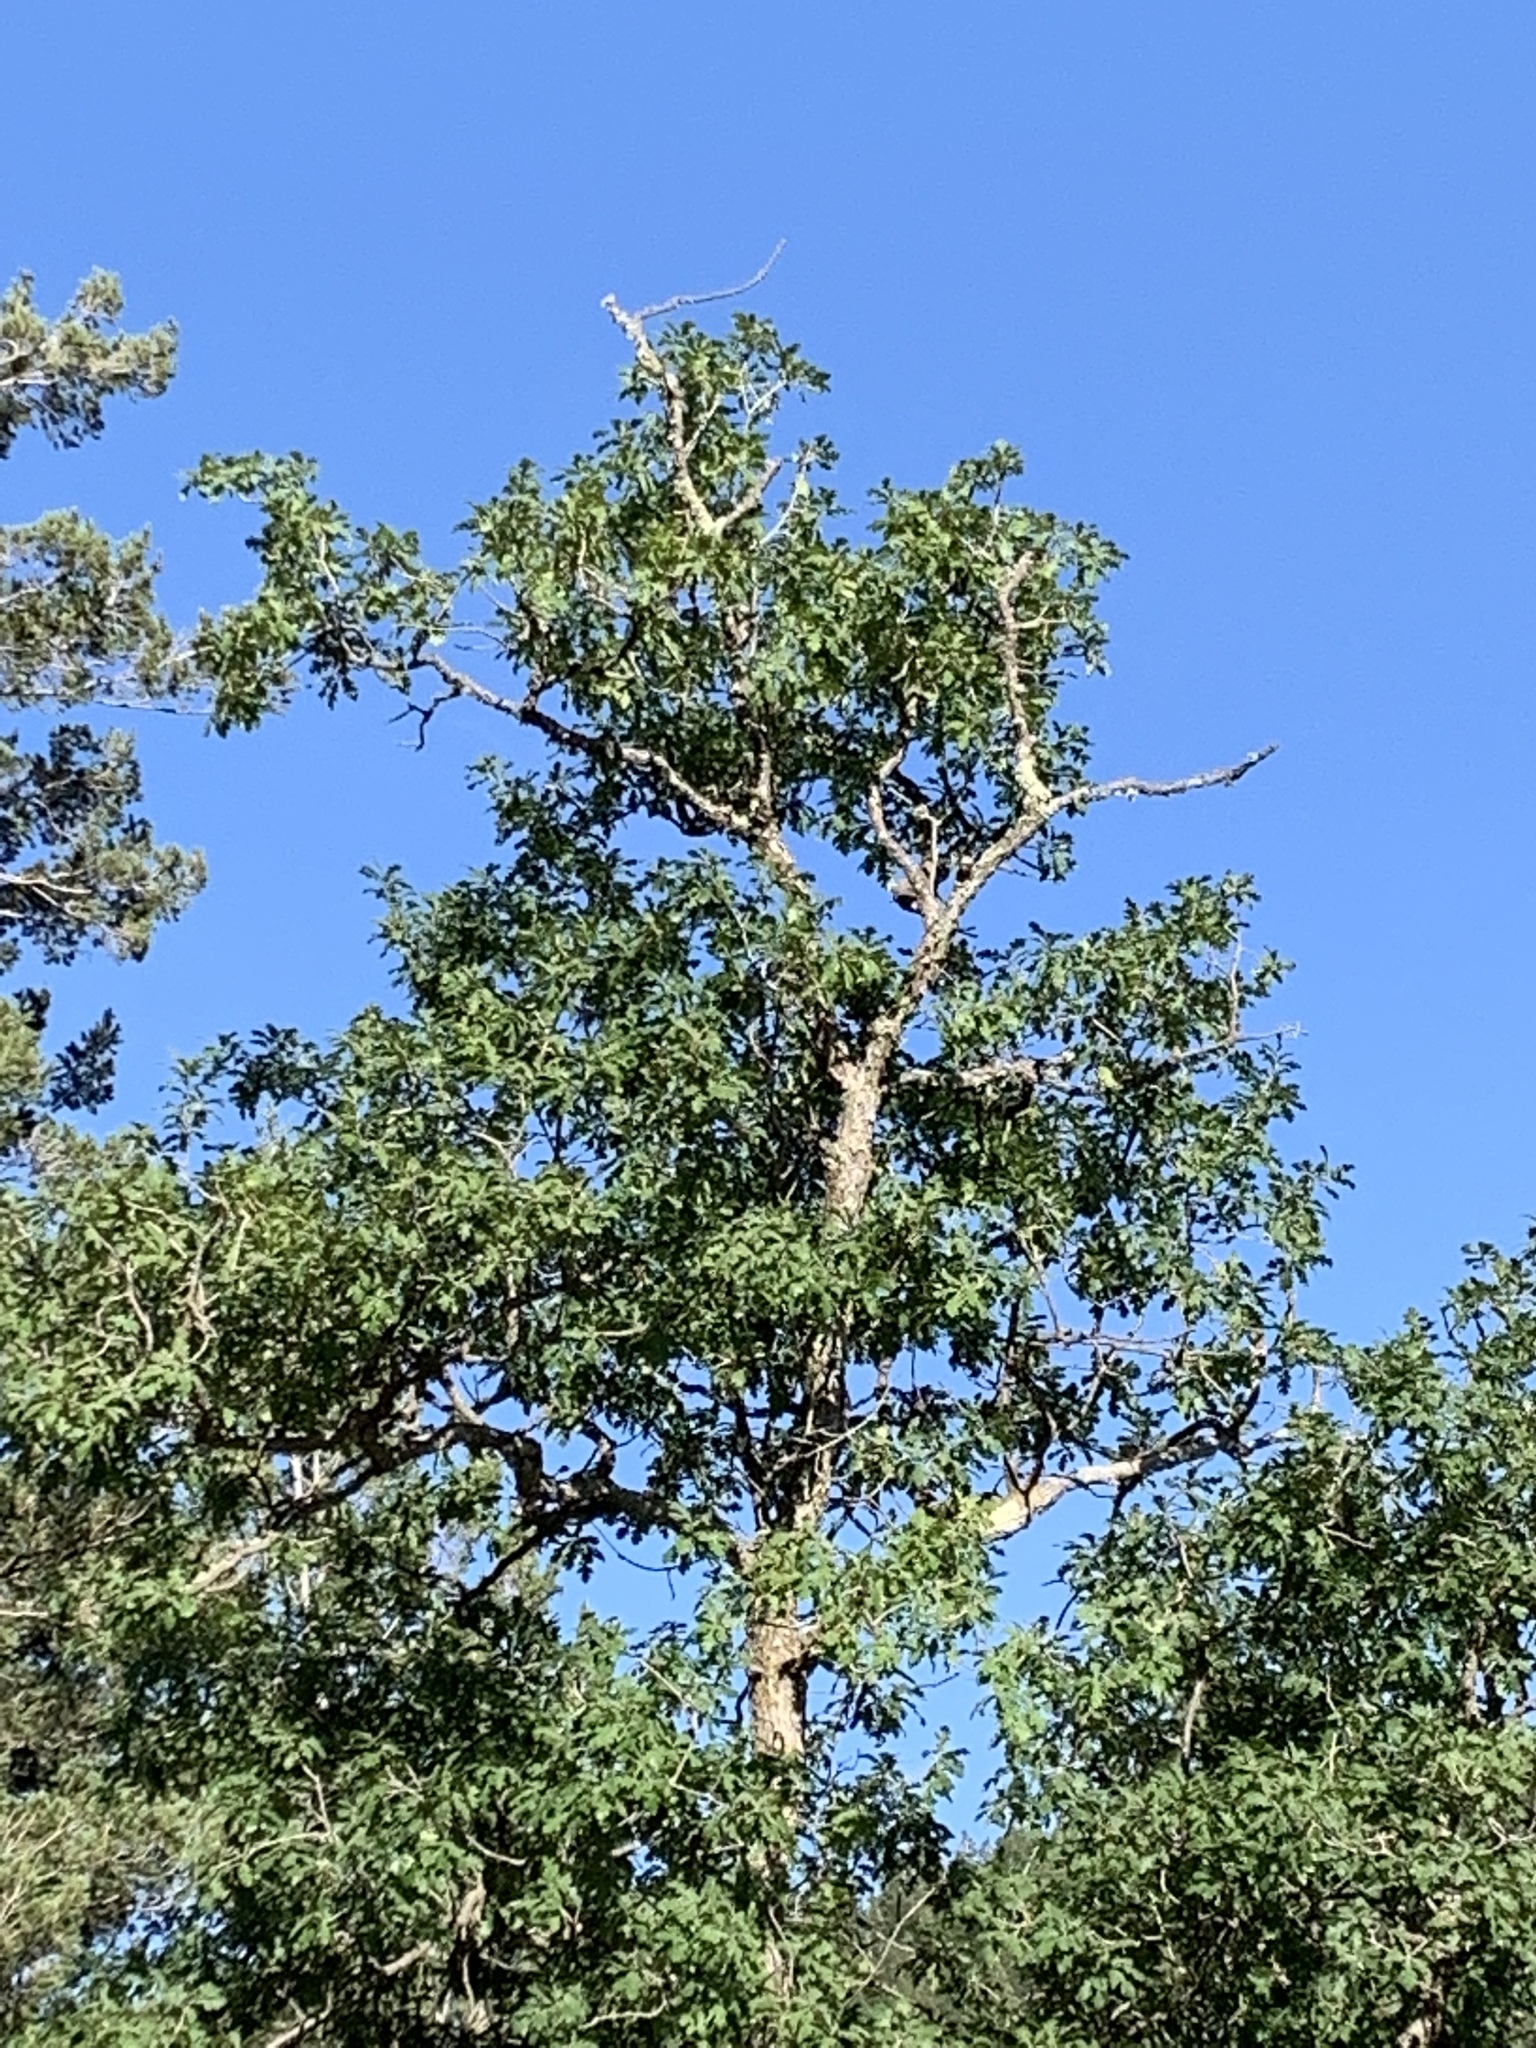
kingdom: Plantae
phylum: Tracheophyta
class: Magnoliopsida
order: Fagales
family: Fagaceae
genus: Quercus
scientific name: Quercus gambelii
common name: Gambel oak
